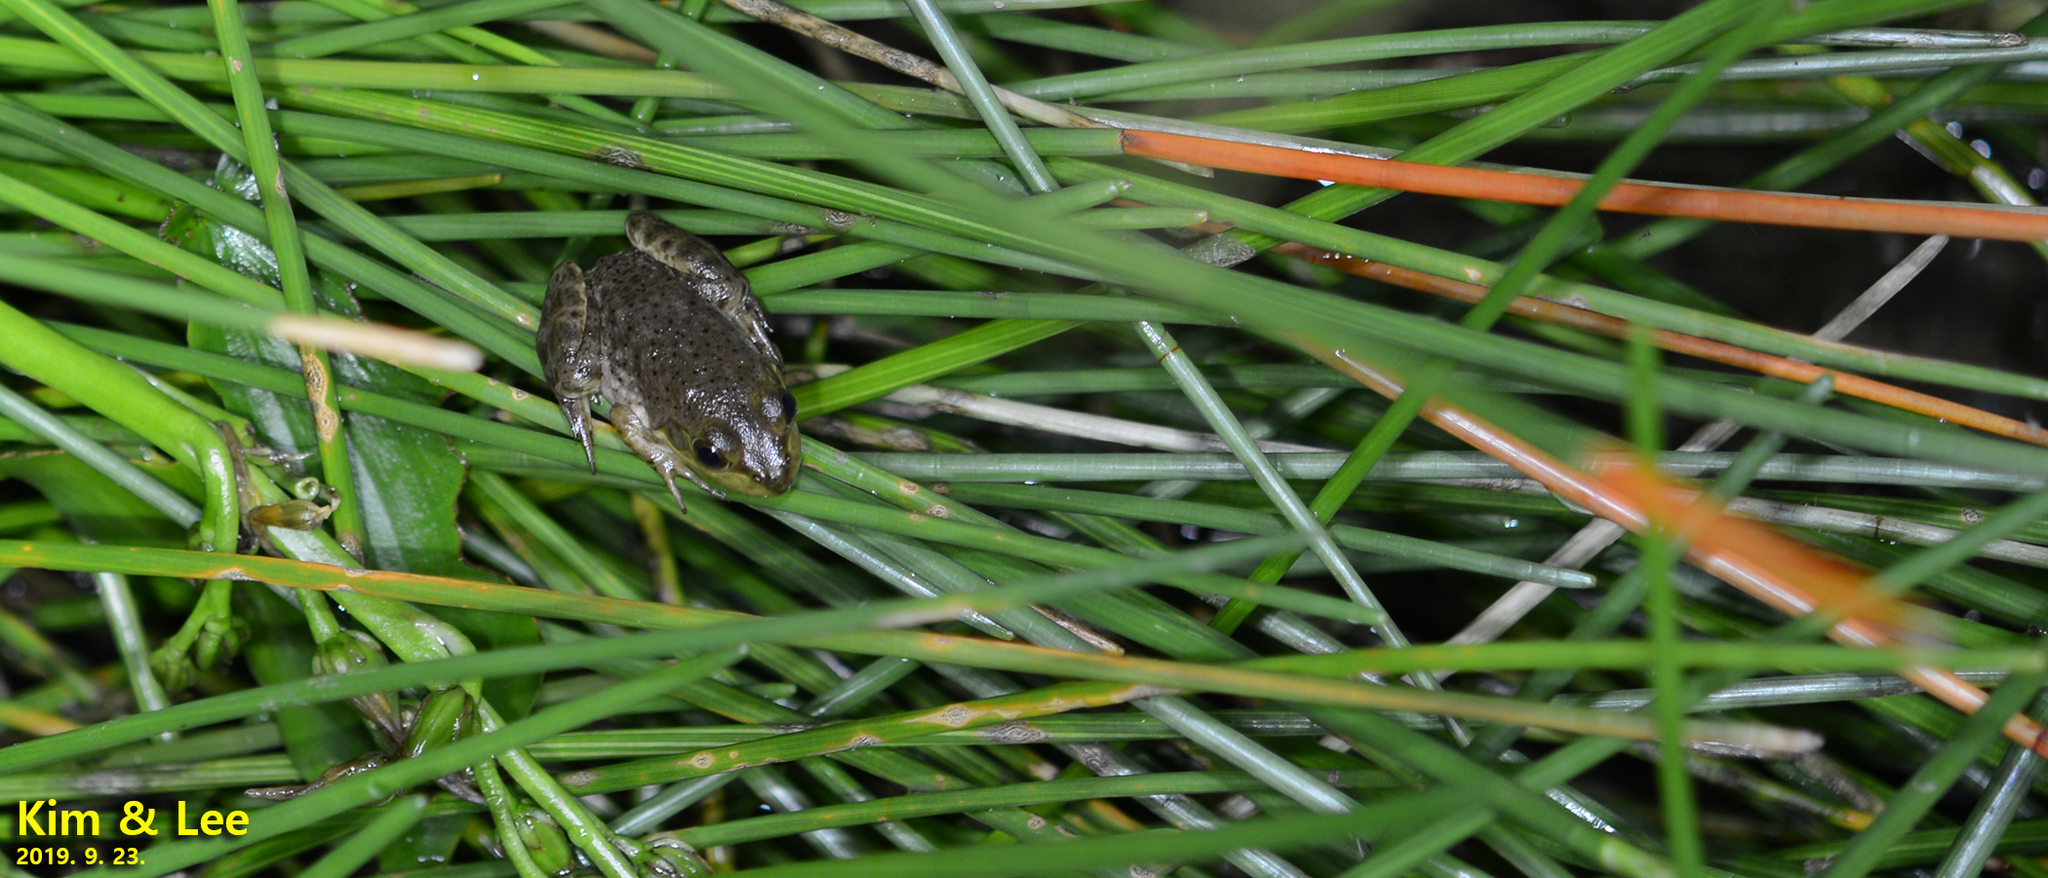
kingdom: Animalia
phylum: Chordata
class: Amphibia
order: Anura
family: Ranidae
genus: Lithobates
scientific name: Lithobates catesbeianus
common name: American bullfrog
